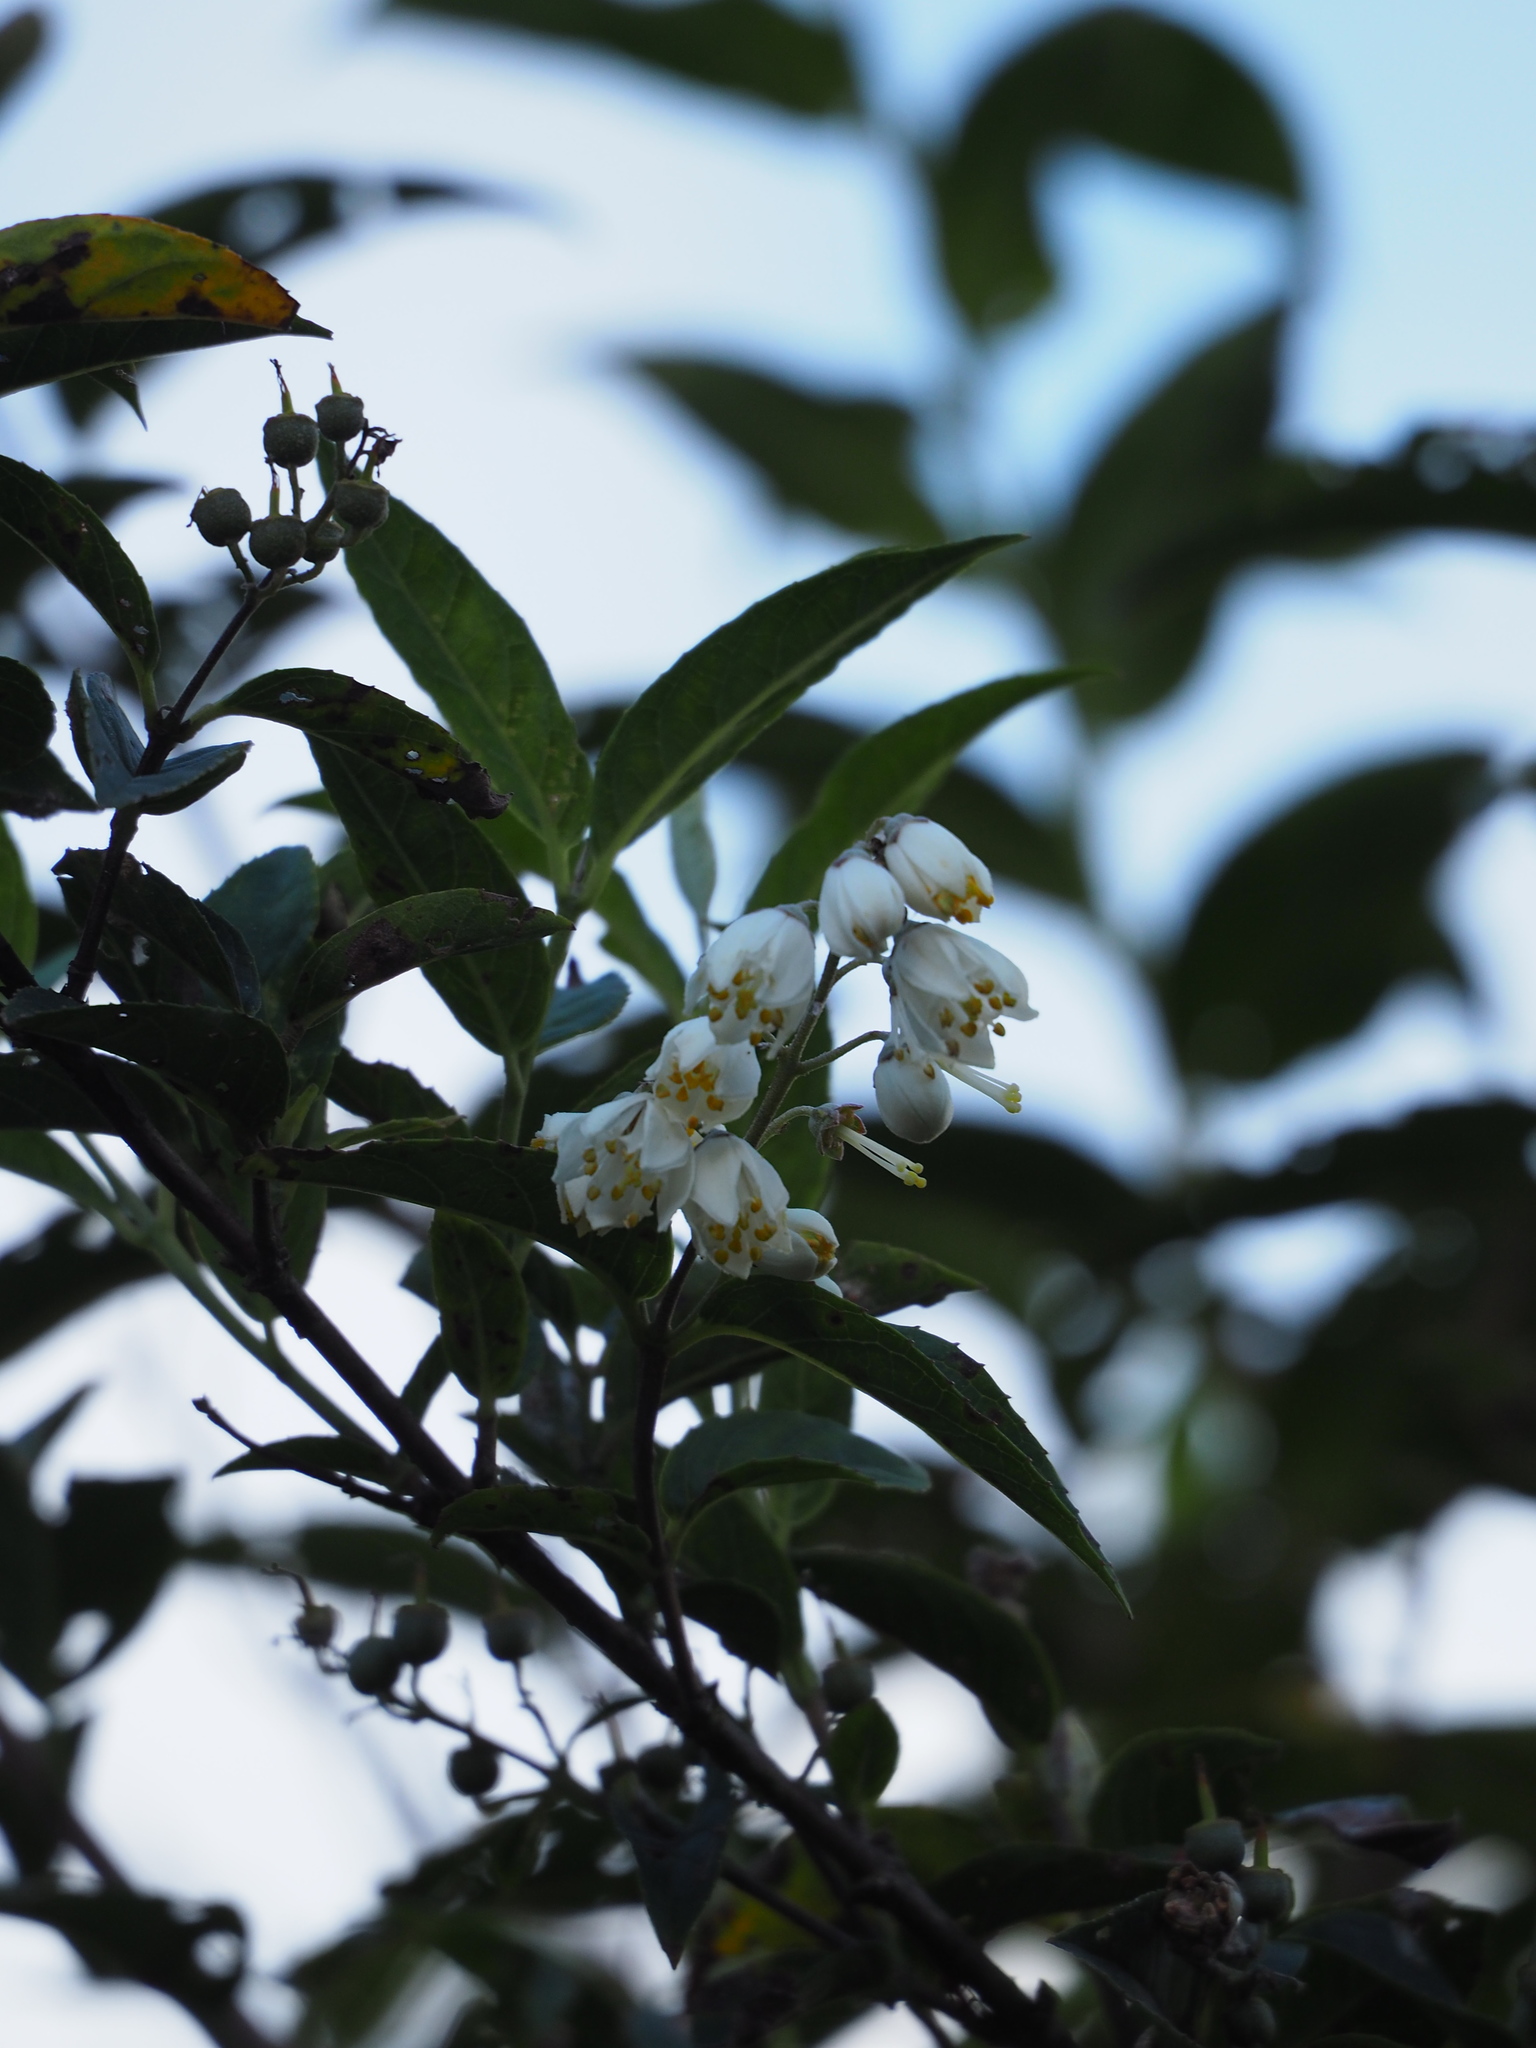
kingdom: Plantae
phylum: Tracheophyta
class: Magnoliopsida
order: Cornales
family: Hydrangeaceae
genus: Deutzia
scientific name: Deutzia pulchra
